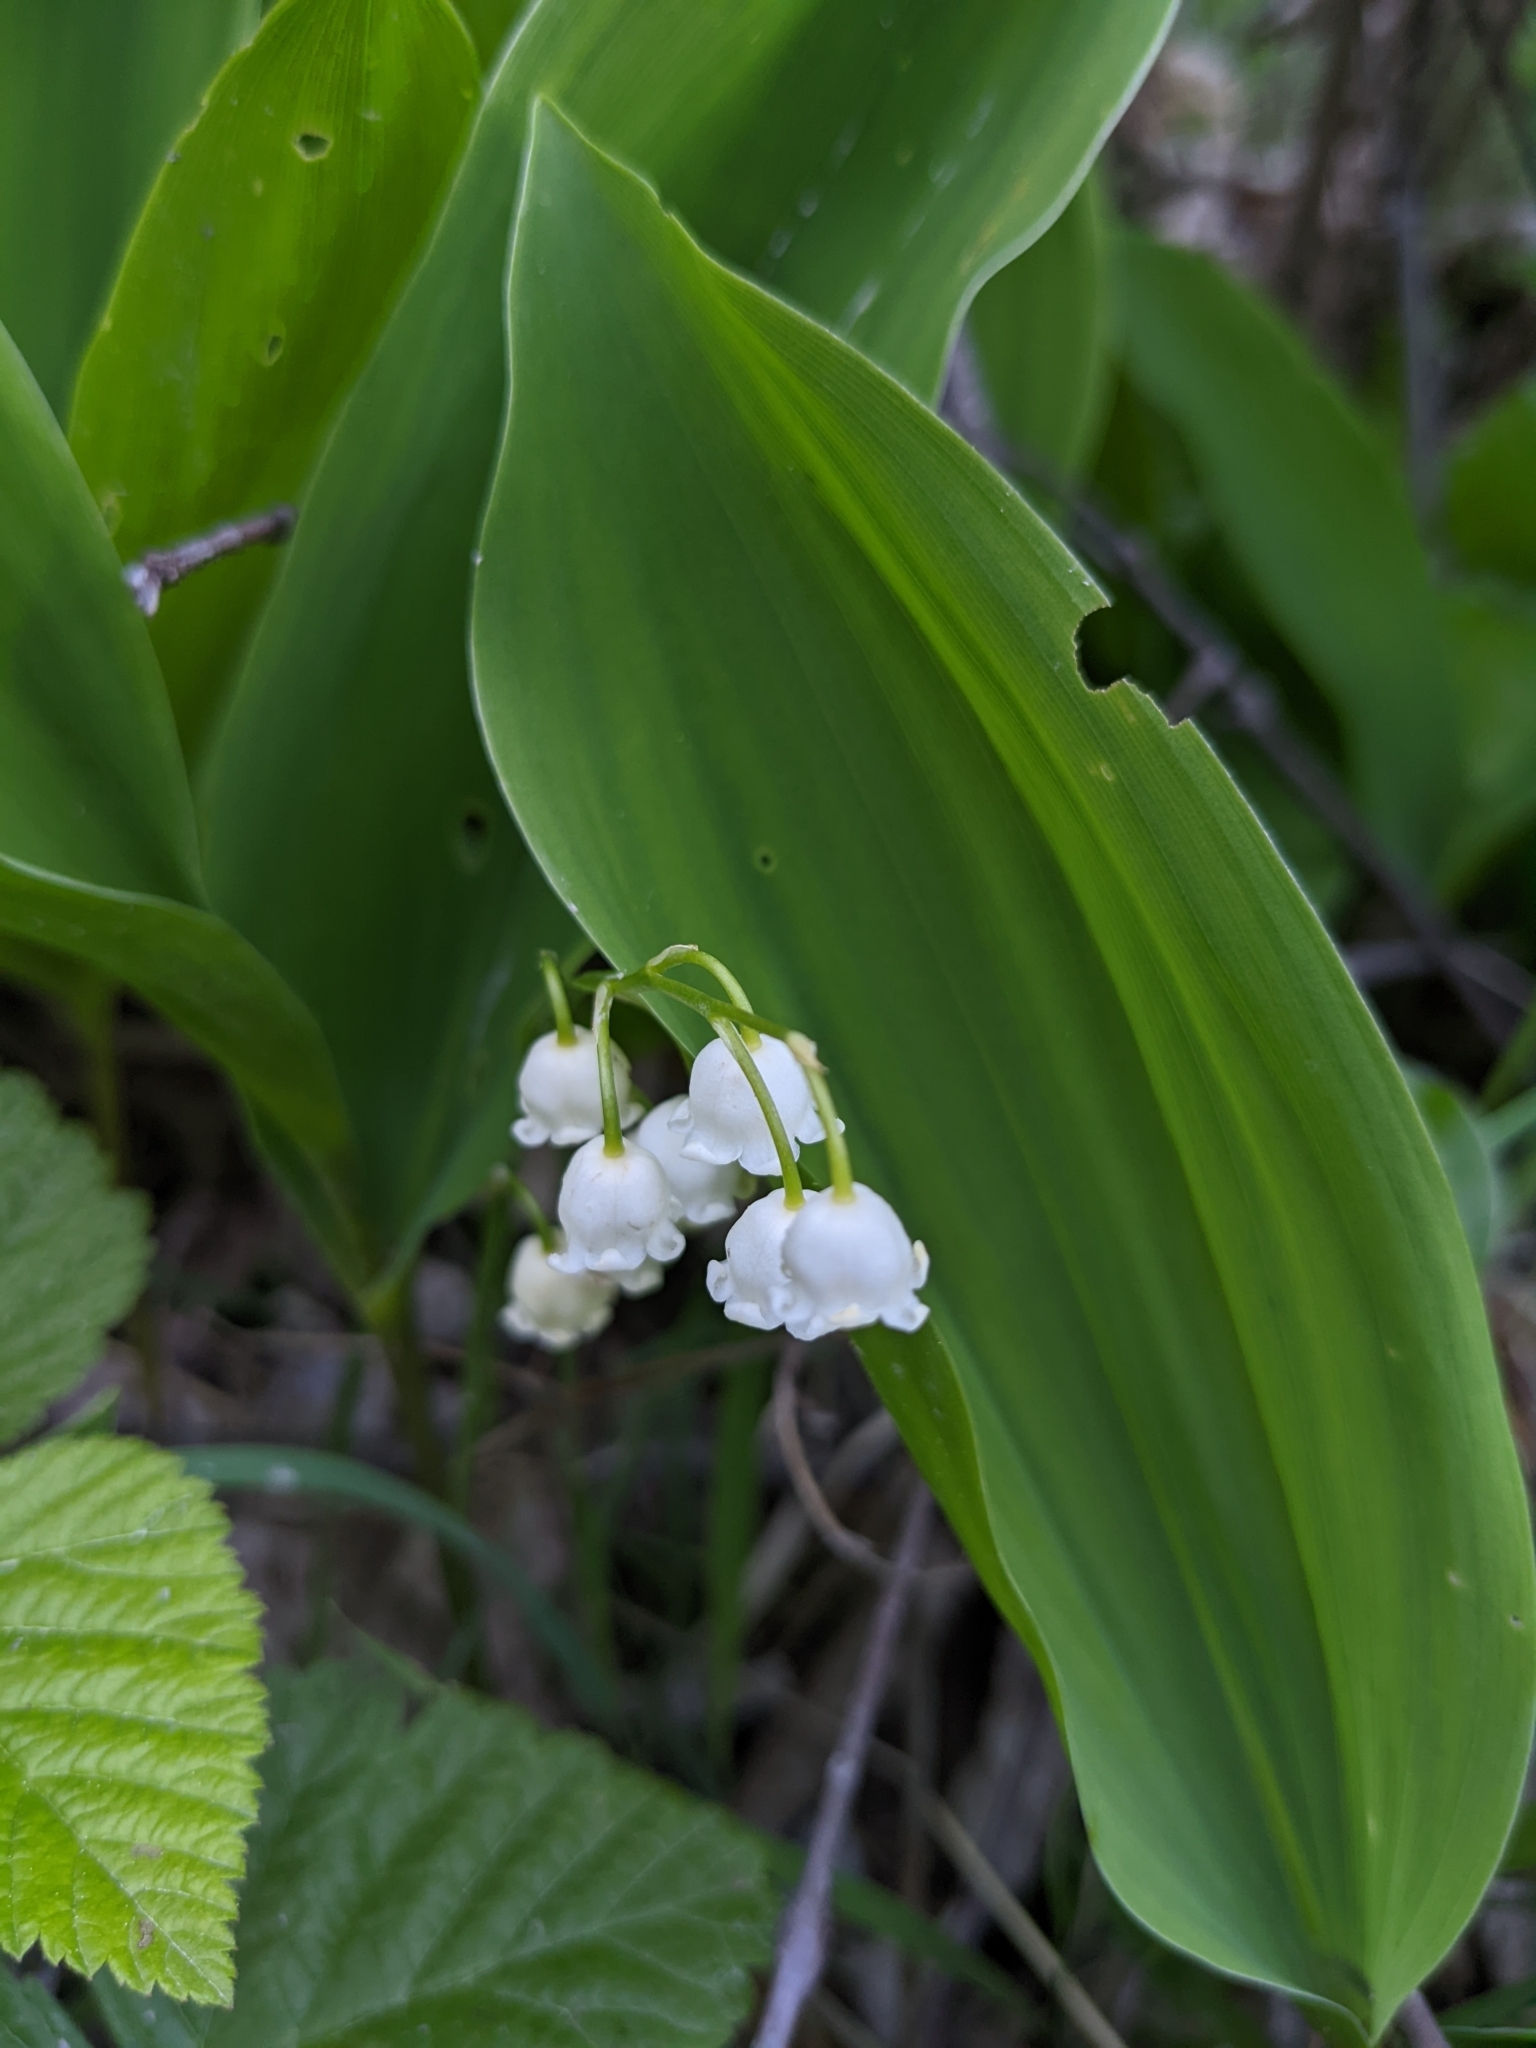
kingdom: Plantae
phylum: Tracheophyta
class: Liliopsida
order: Asparagales
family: Asparagaceae
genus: Convallaria
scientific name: Convallaria majalis
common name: Lily-of-the-valley
